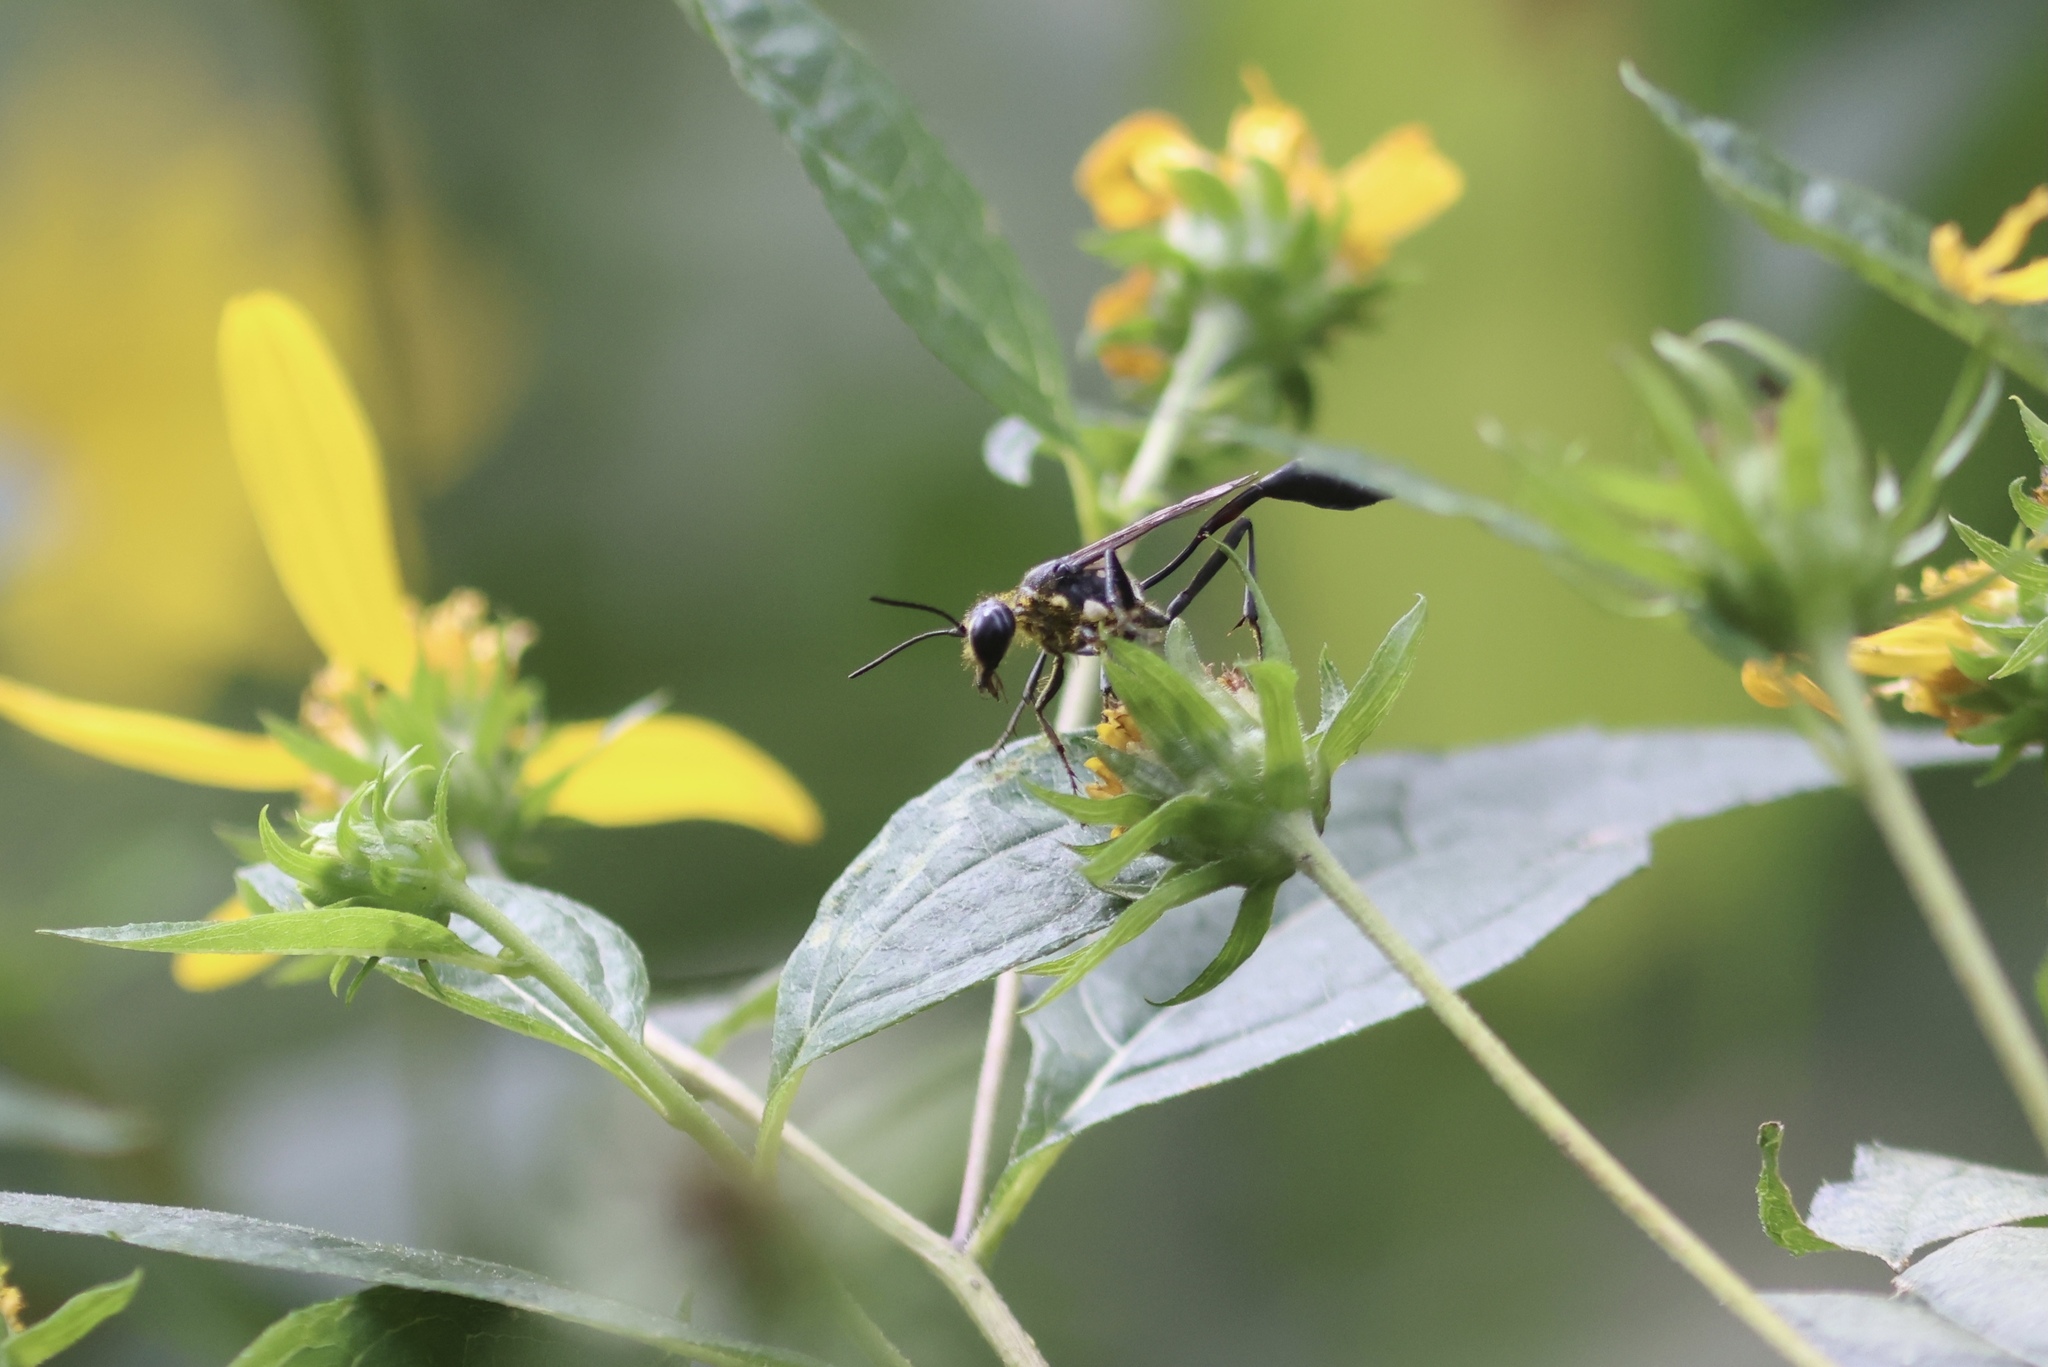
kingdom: Animalia
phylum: Arthropoda
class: Insecta
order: Hymenoptera
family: Sphecidae
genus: Eremnophila
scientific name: Eremnophila aureonotata
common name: Gold-marked thread-waisted wasp
